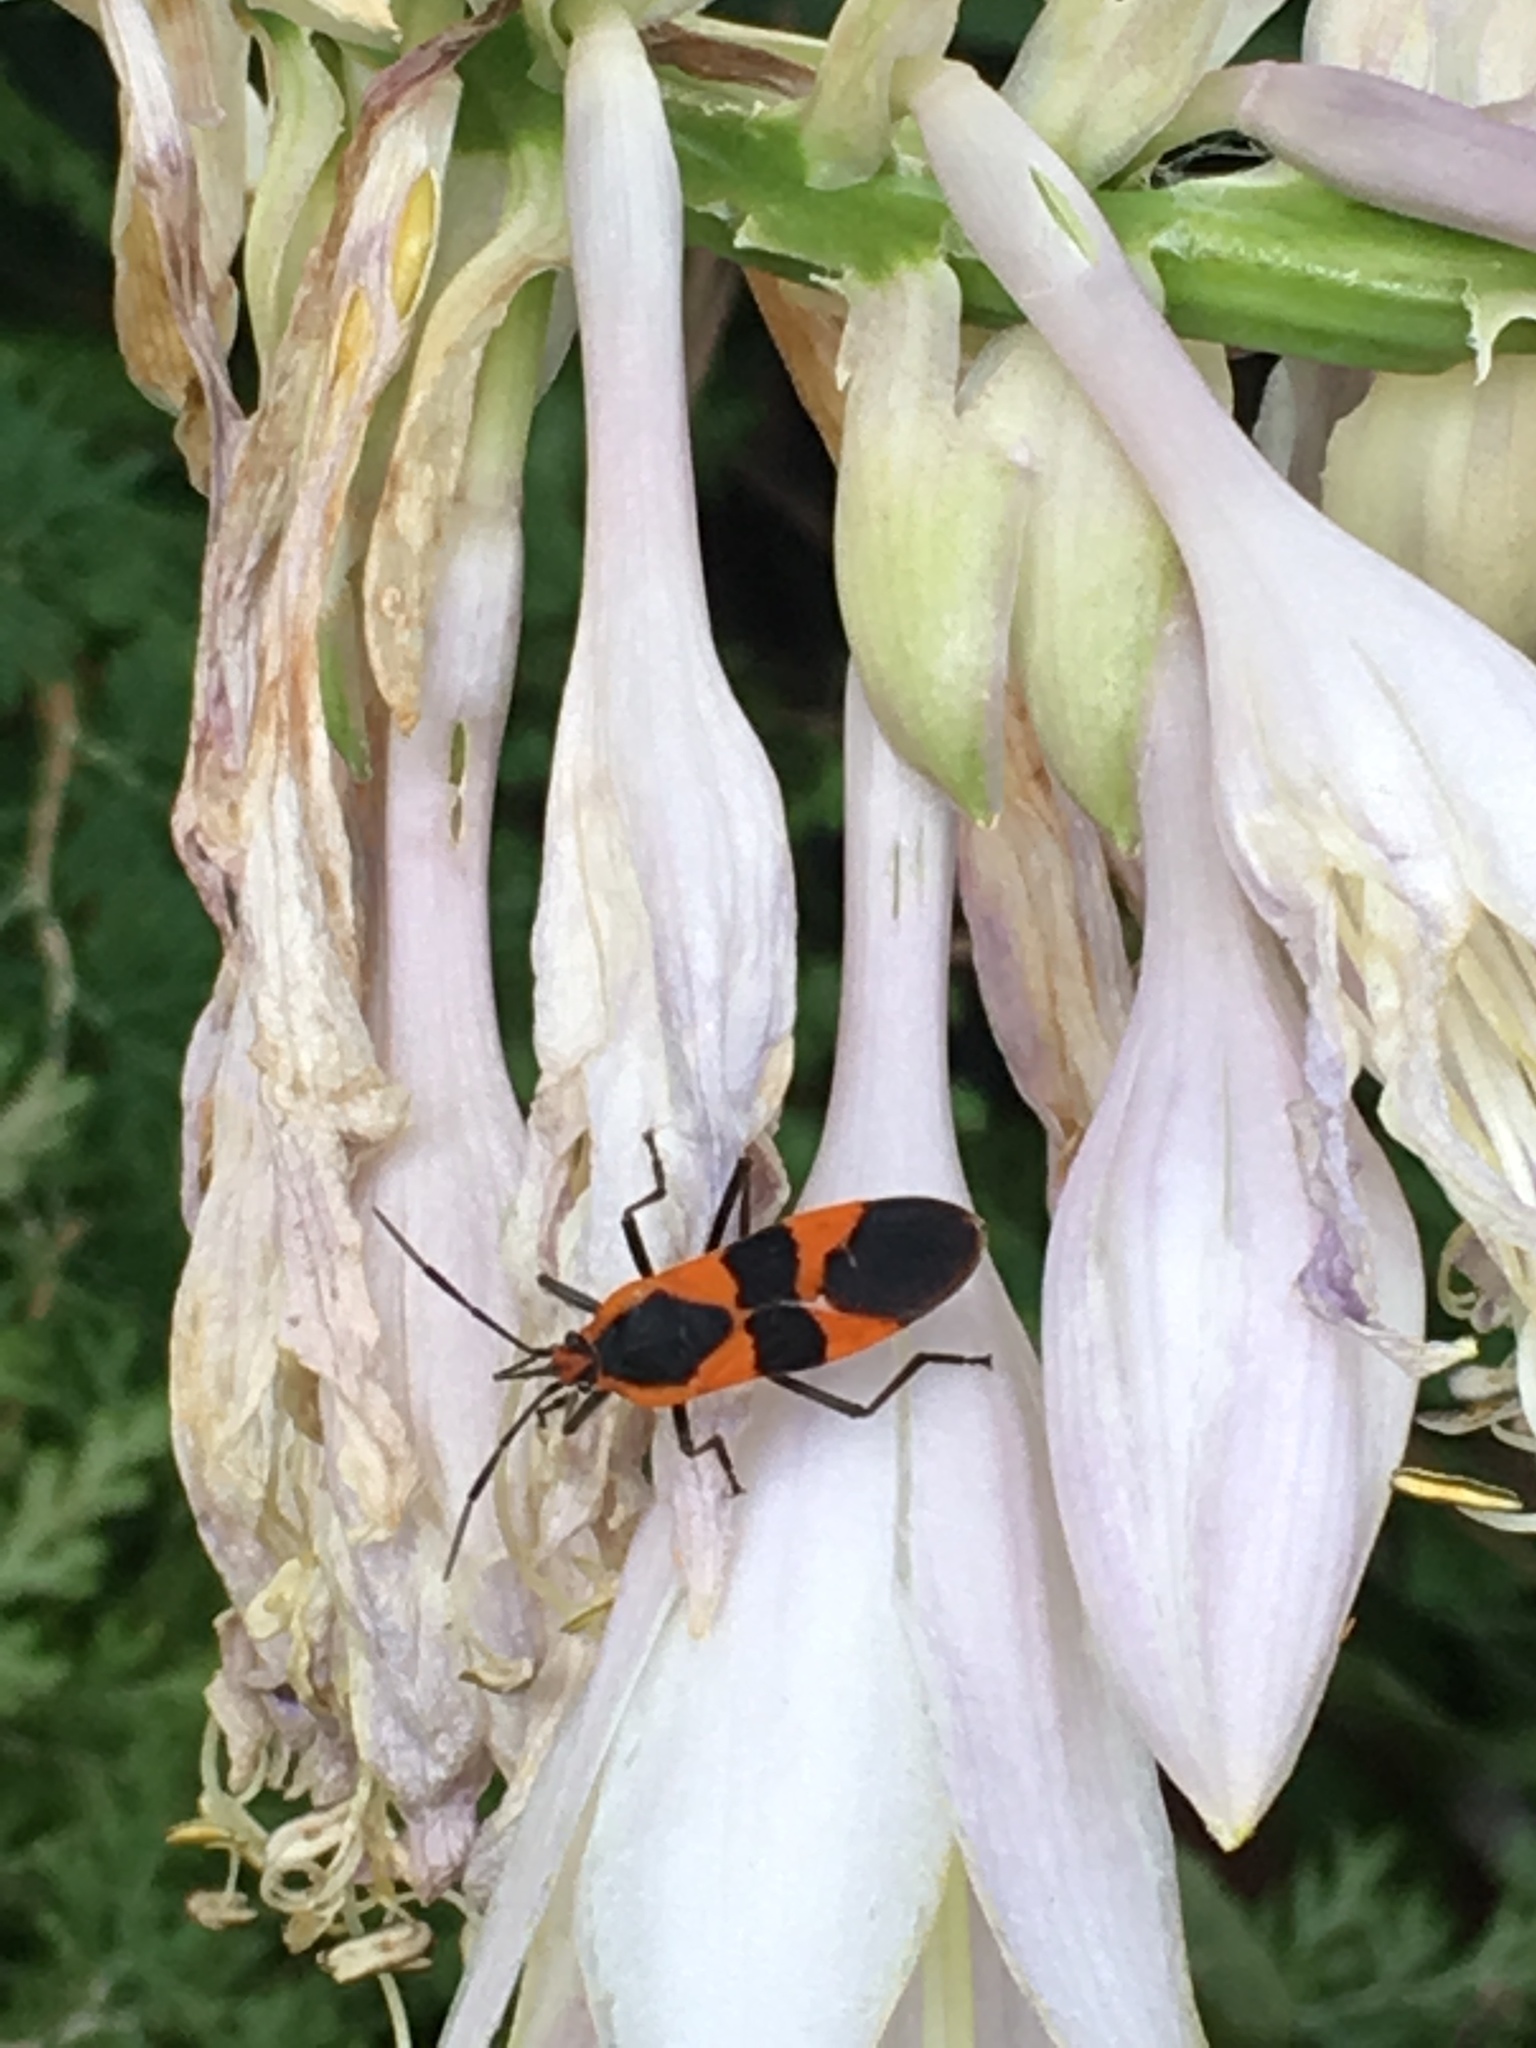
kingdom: Animalia
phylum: Arthropoda
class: Insecta
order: Hemiptera
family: Lygaeidae
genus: Oncopeltus
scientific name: Oncopeltus fasciatus
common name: Large milkweed bug
